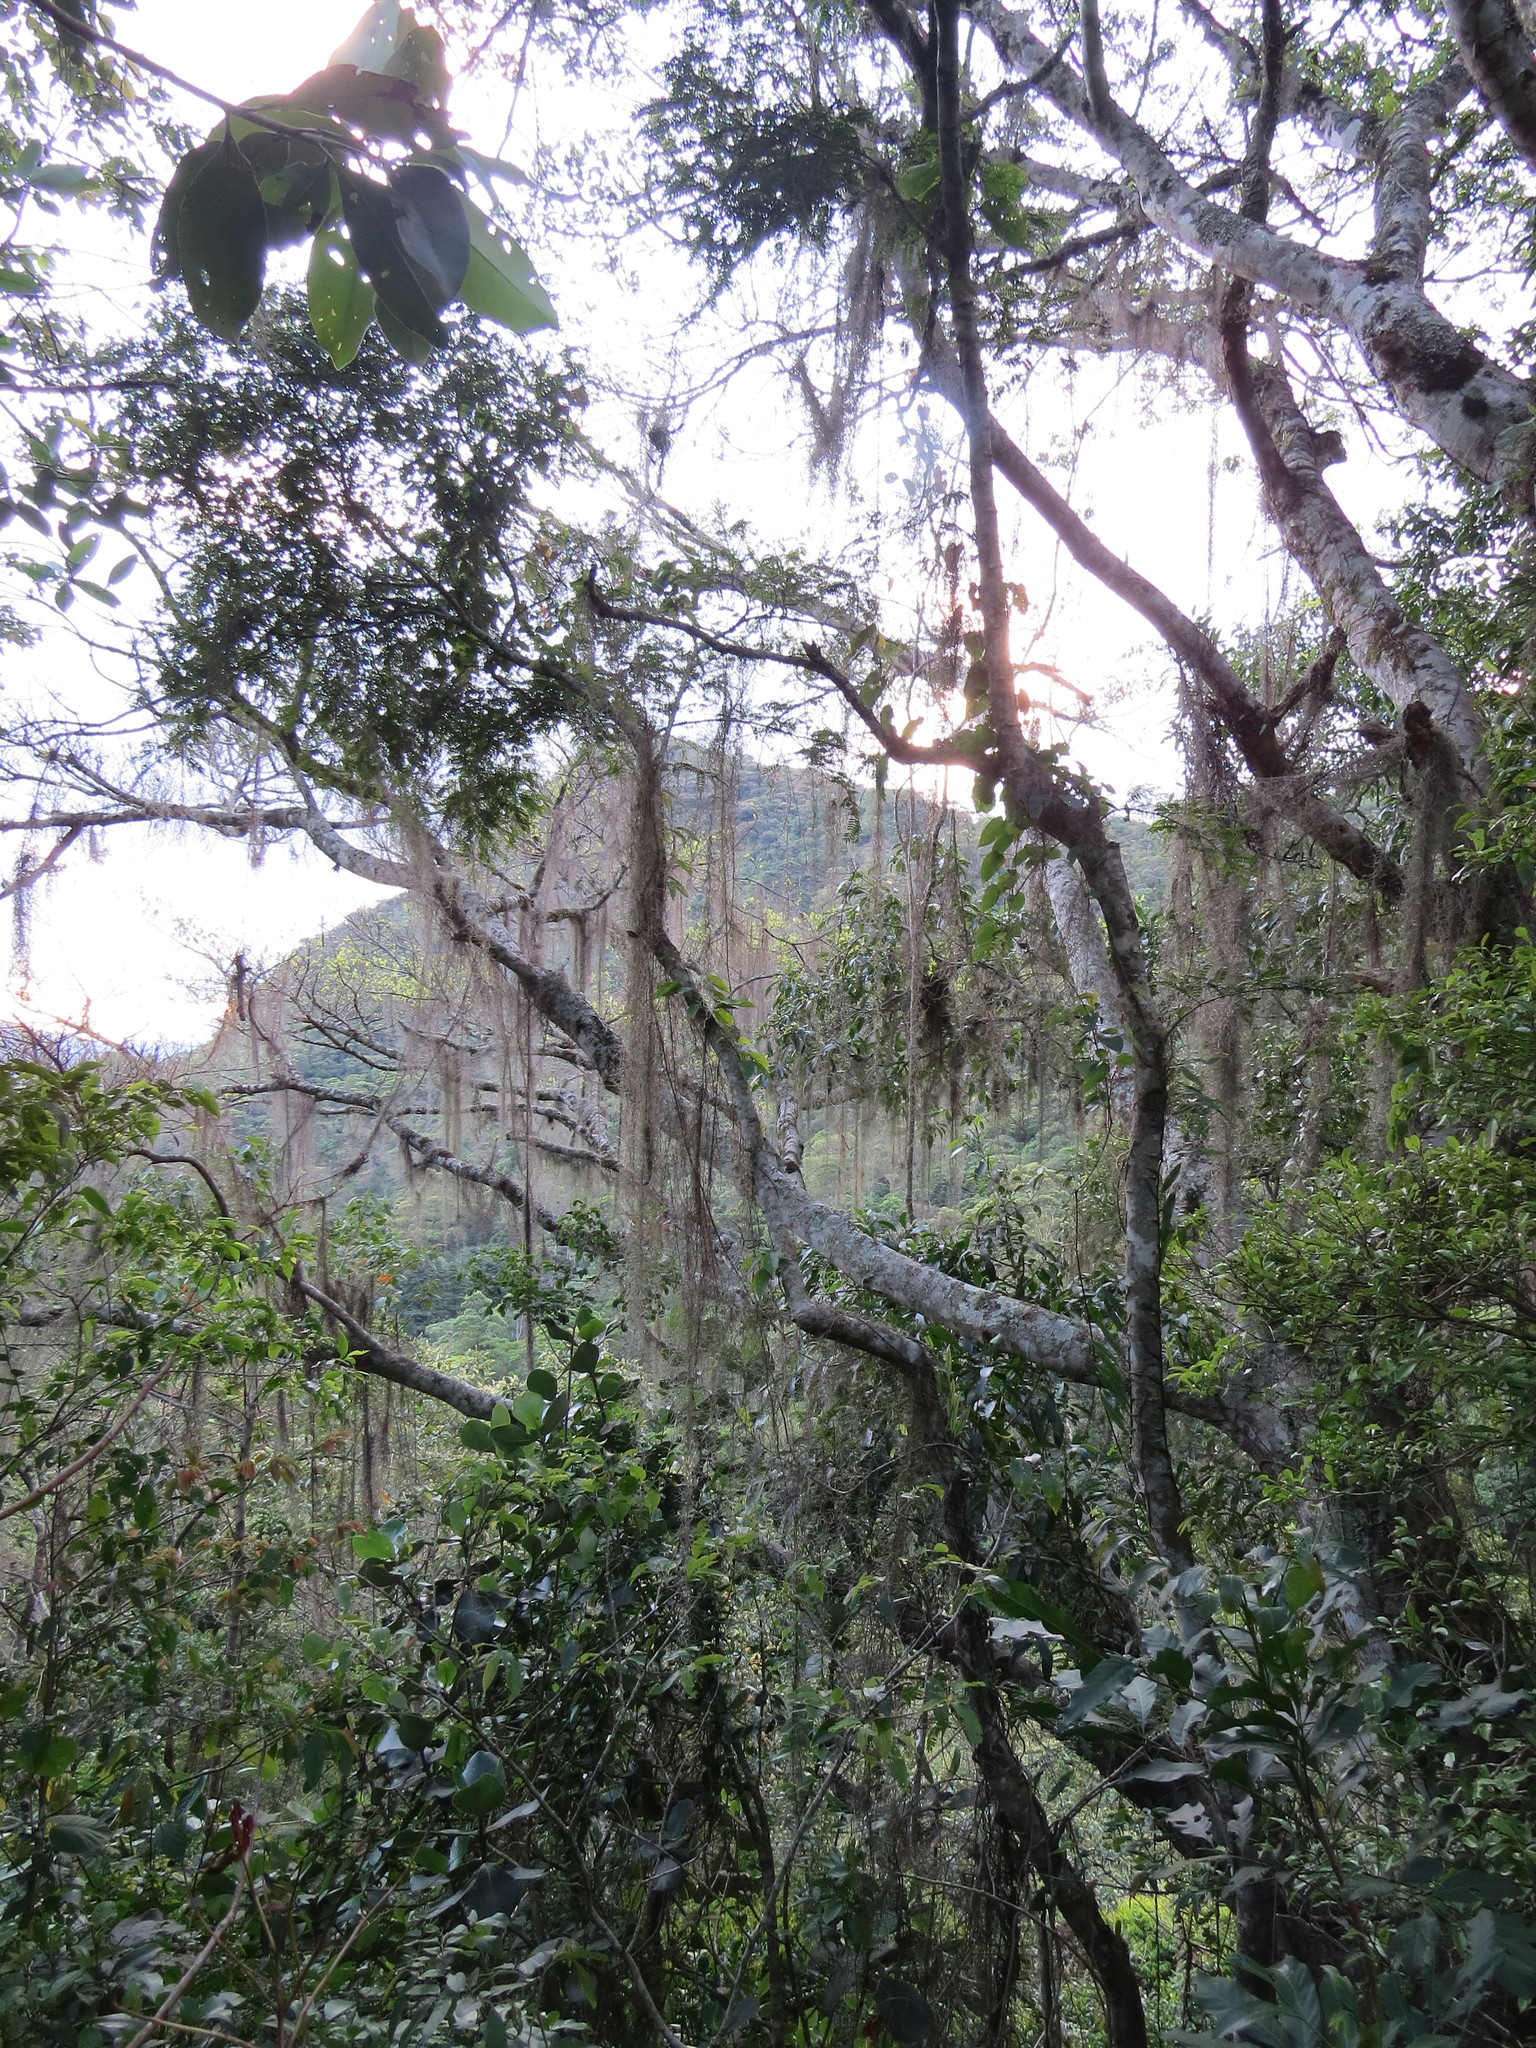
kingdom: Plantae
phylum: Tracheophyta
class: Liliopsida
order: Poales
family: Bromeliaceae
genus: Tillandsia
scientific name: Tillandsia usneoides
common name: Spanish moss
